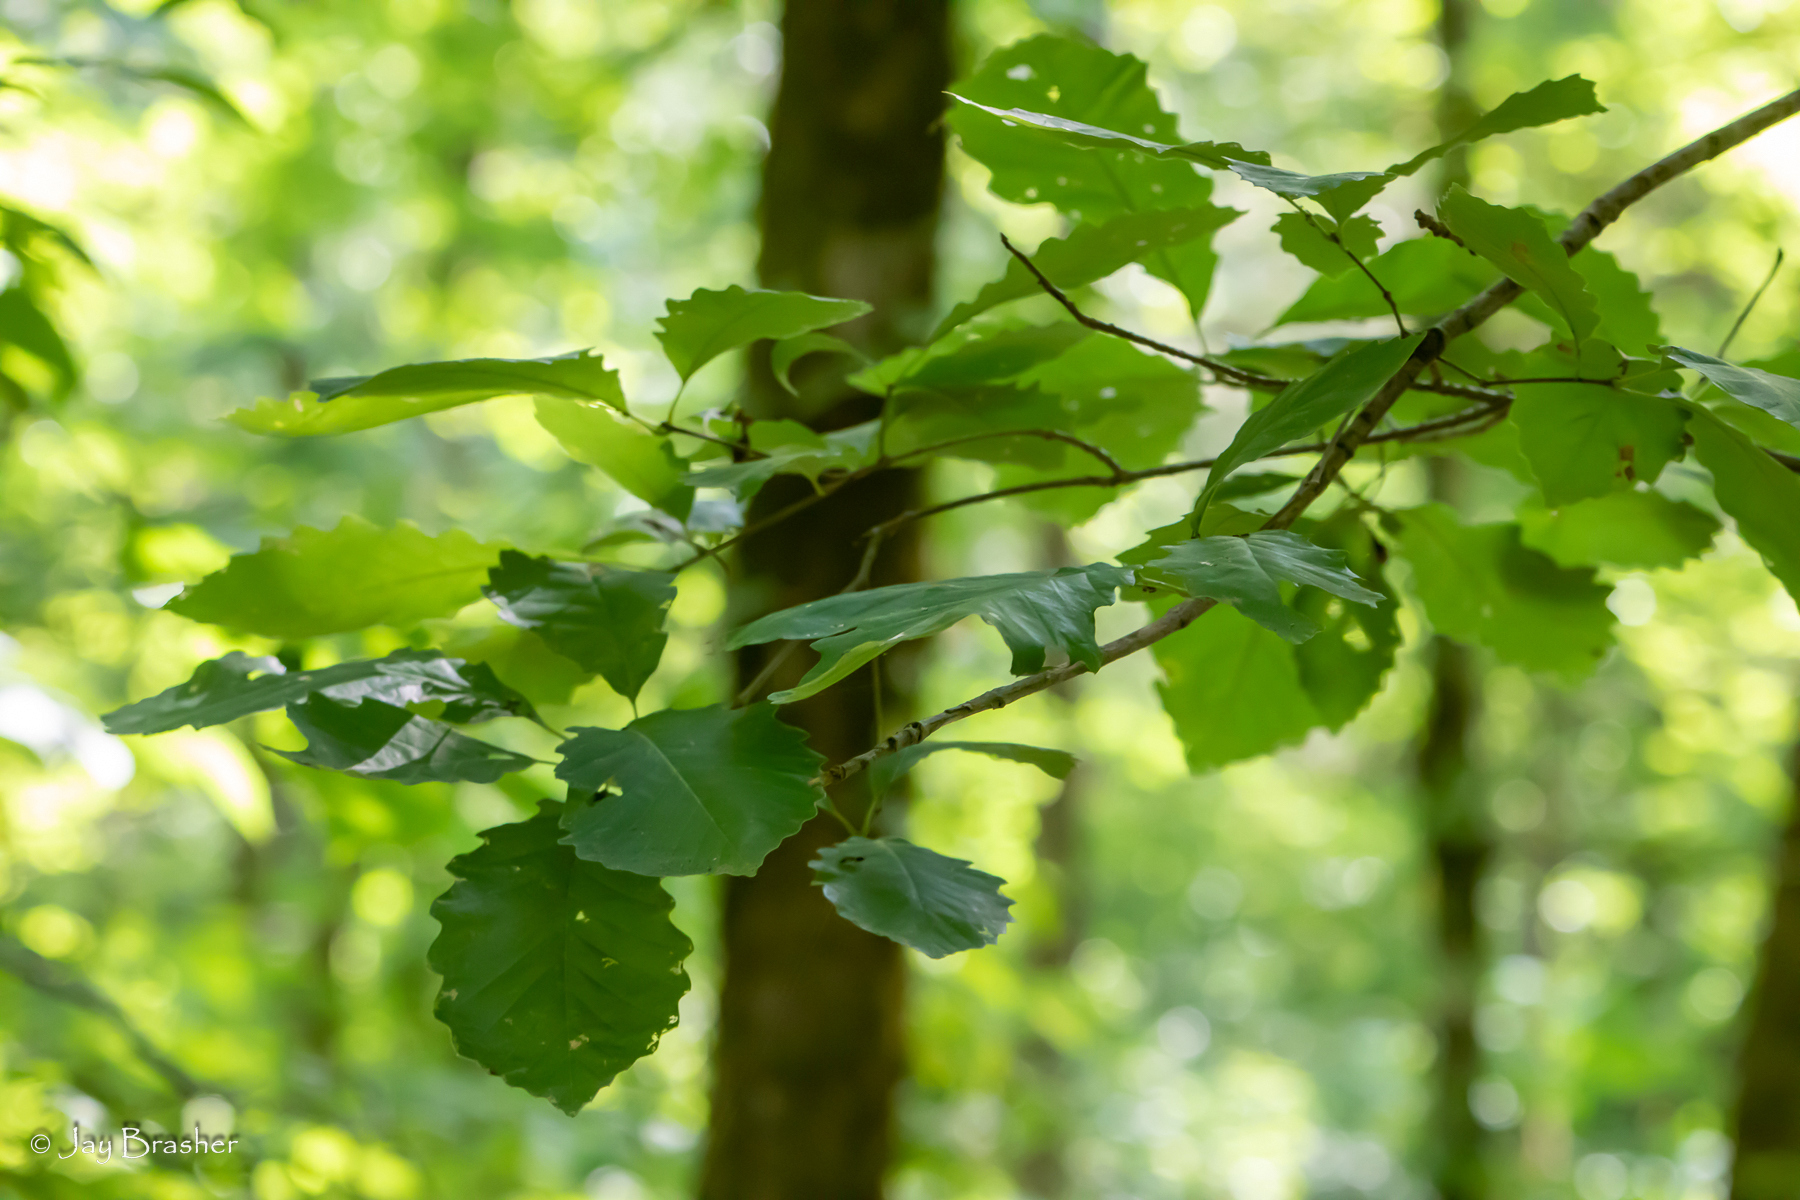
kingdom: Plantae
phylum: Tracheophyta
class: Magnoliopsida
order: Fagales
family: Fagaceae
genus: Quercus
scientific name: Quercus montana
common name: Chestnut oak
